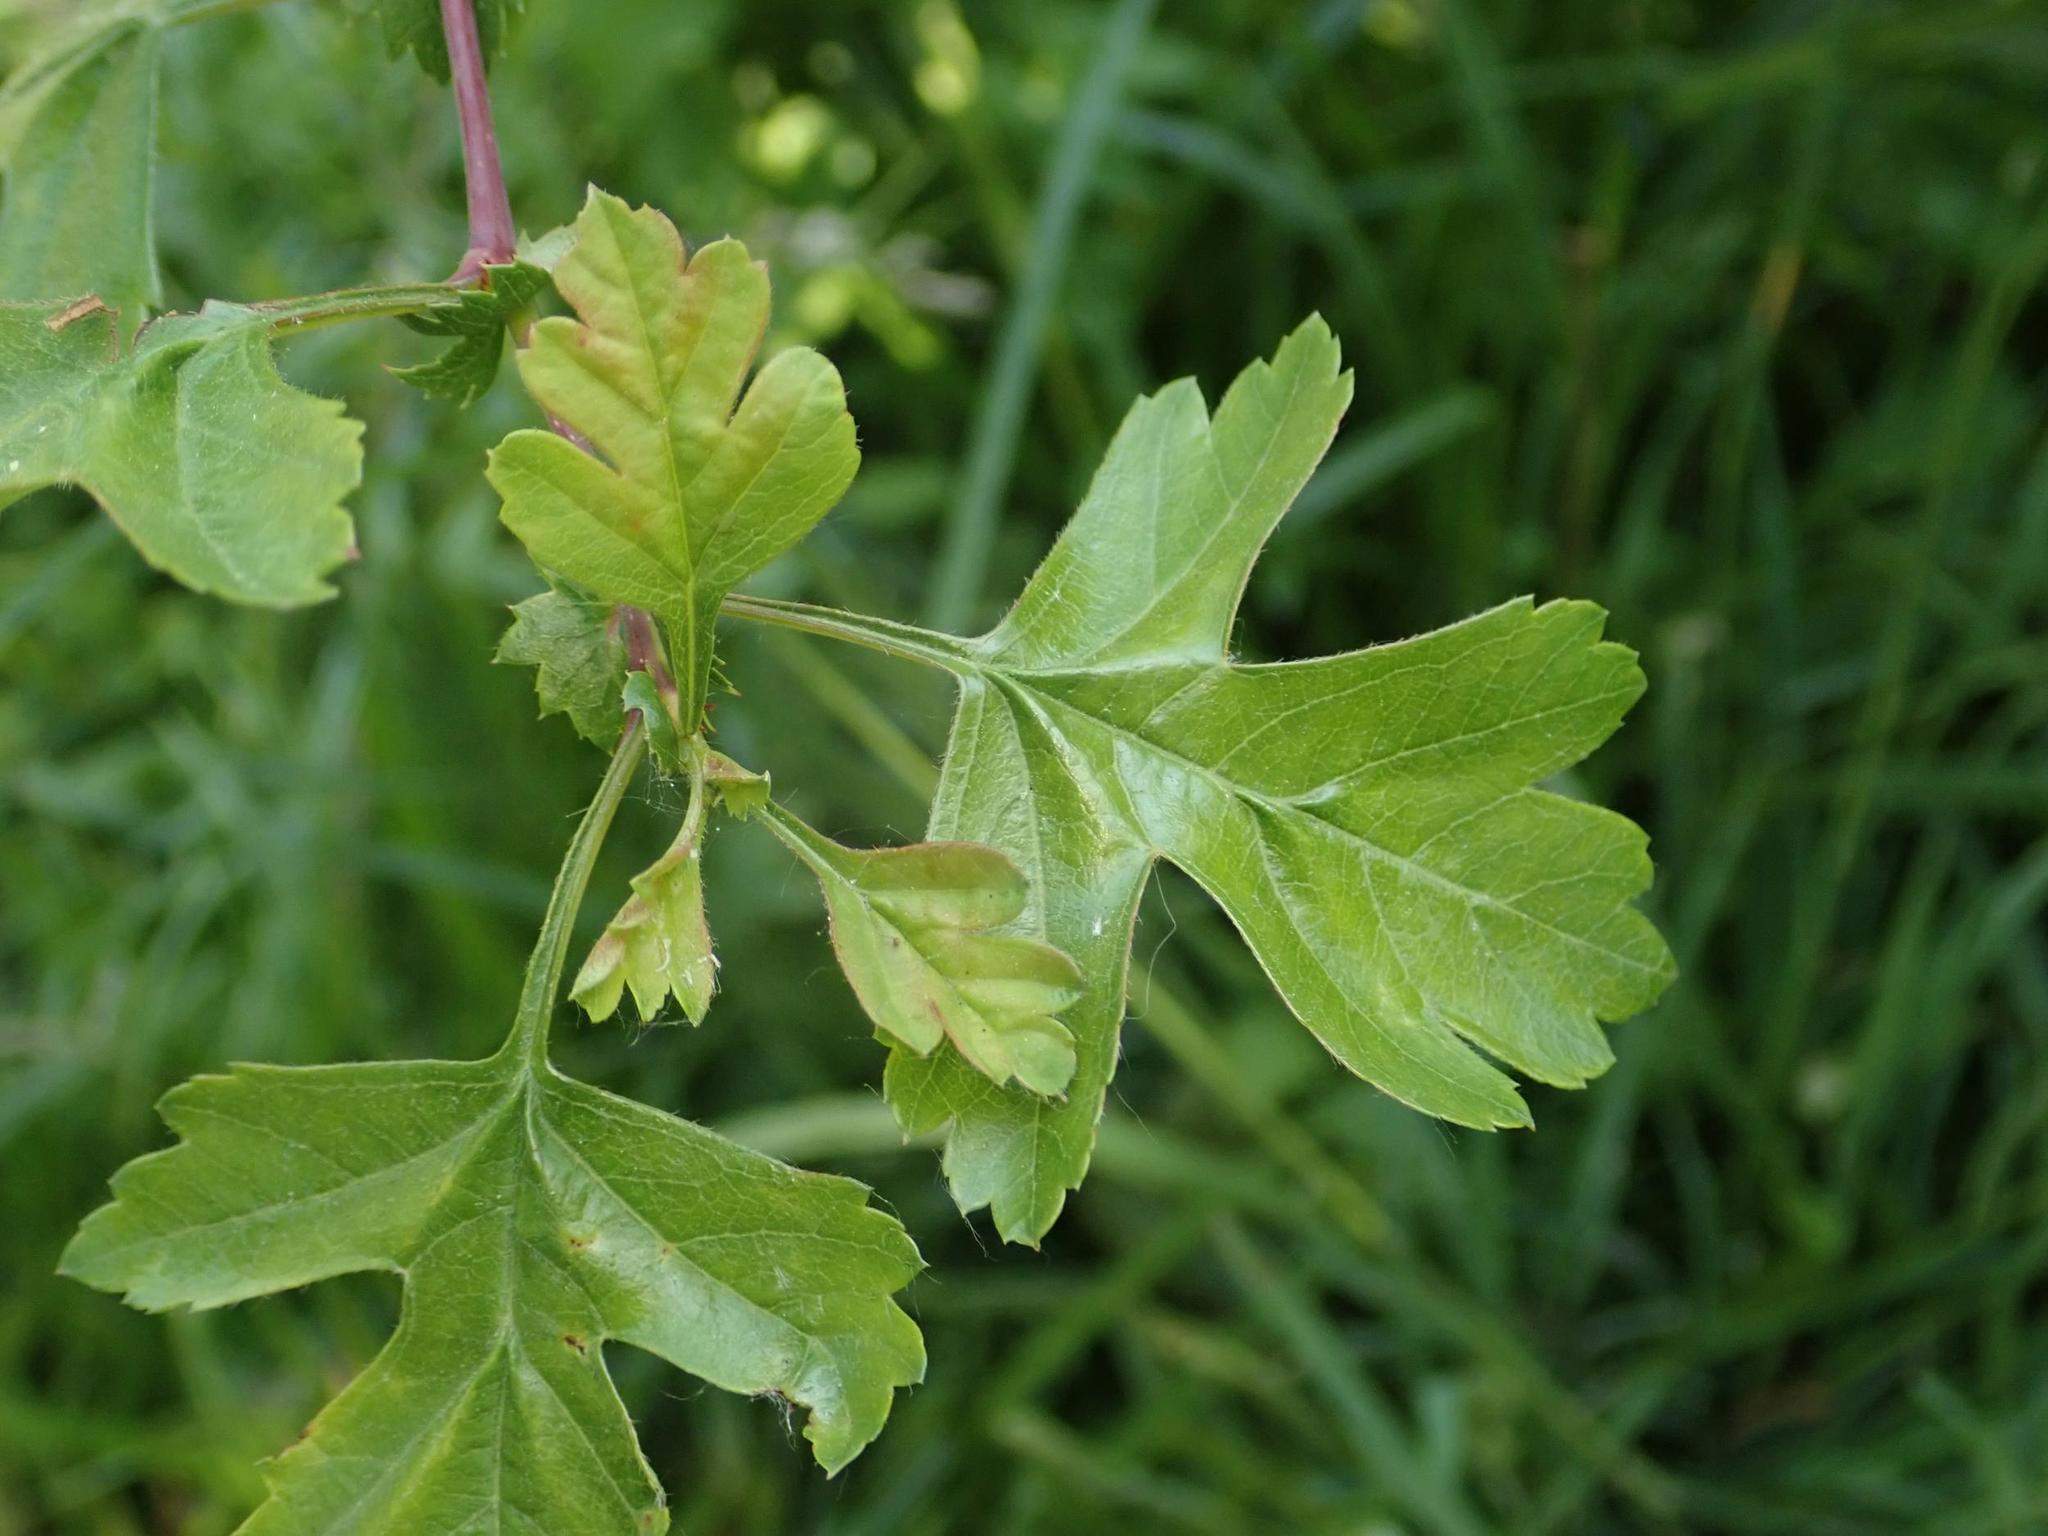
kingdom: Plantae
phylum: Tracheophyta
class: Magnoliopsida
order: Rosales
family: Rosaceae
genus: Crataegus
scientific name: Crataegus monogyna
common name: Hawthorn
